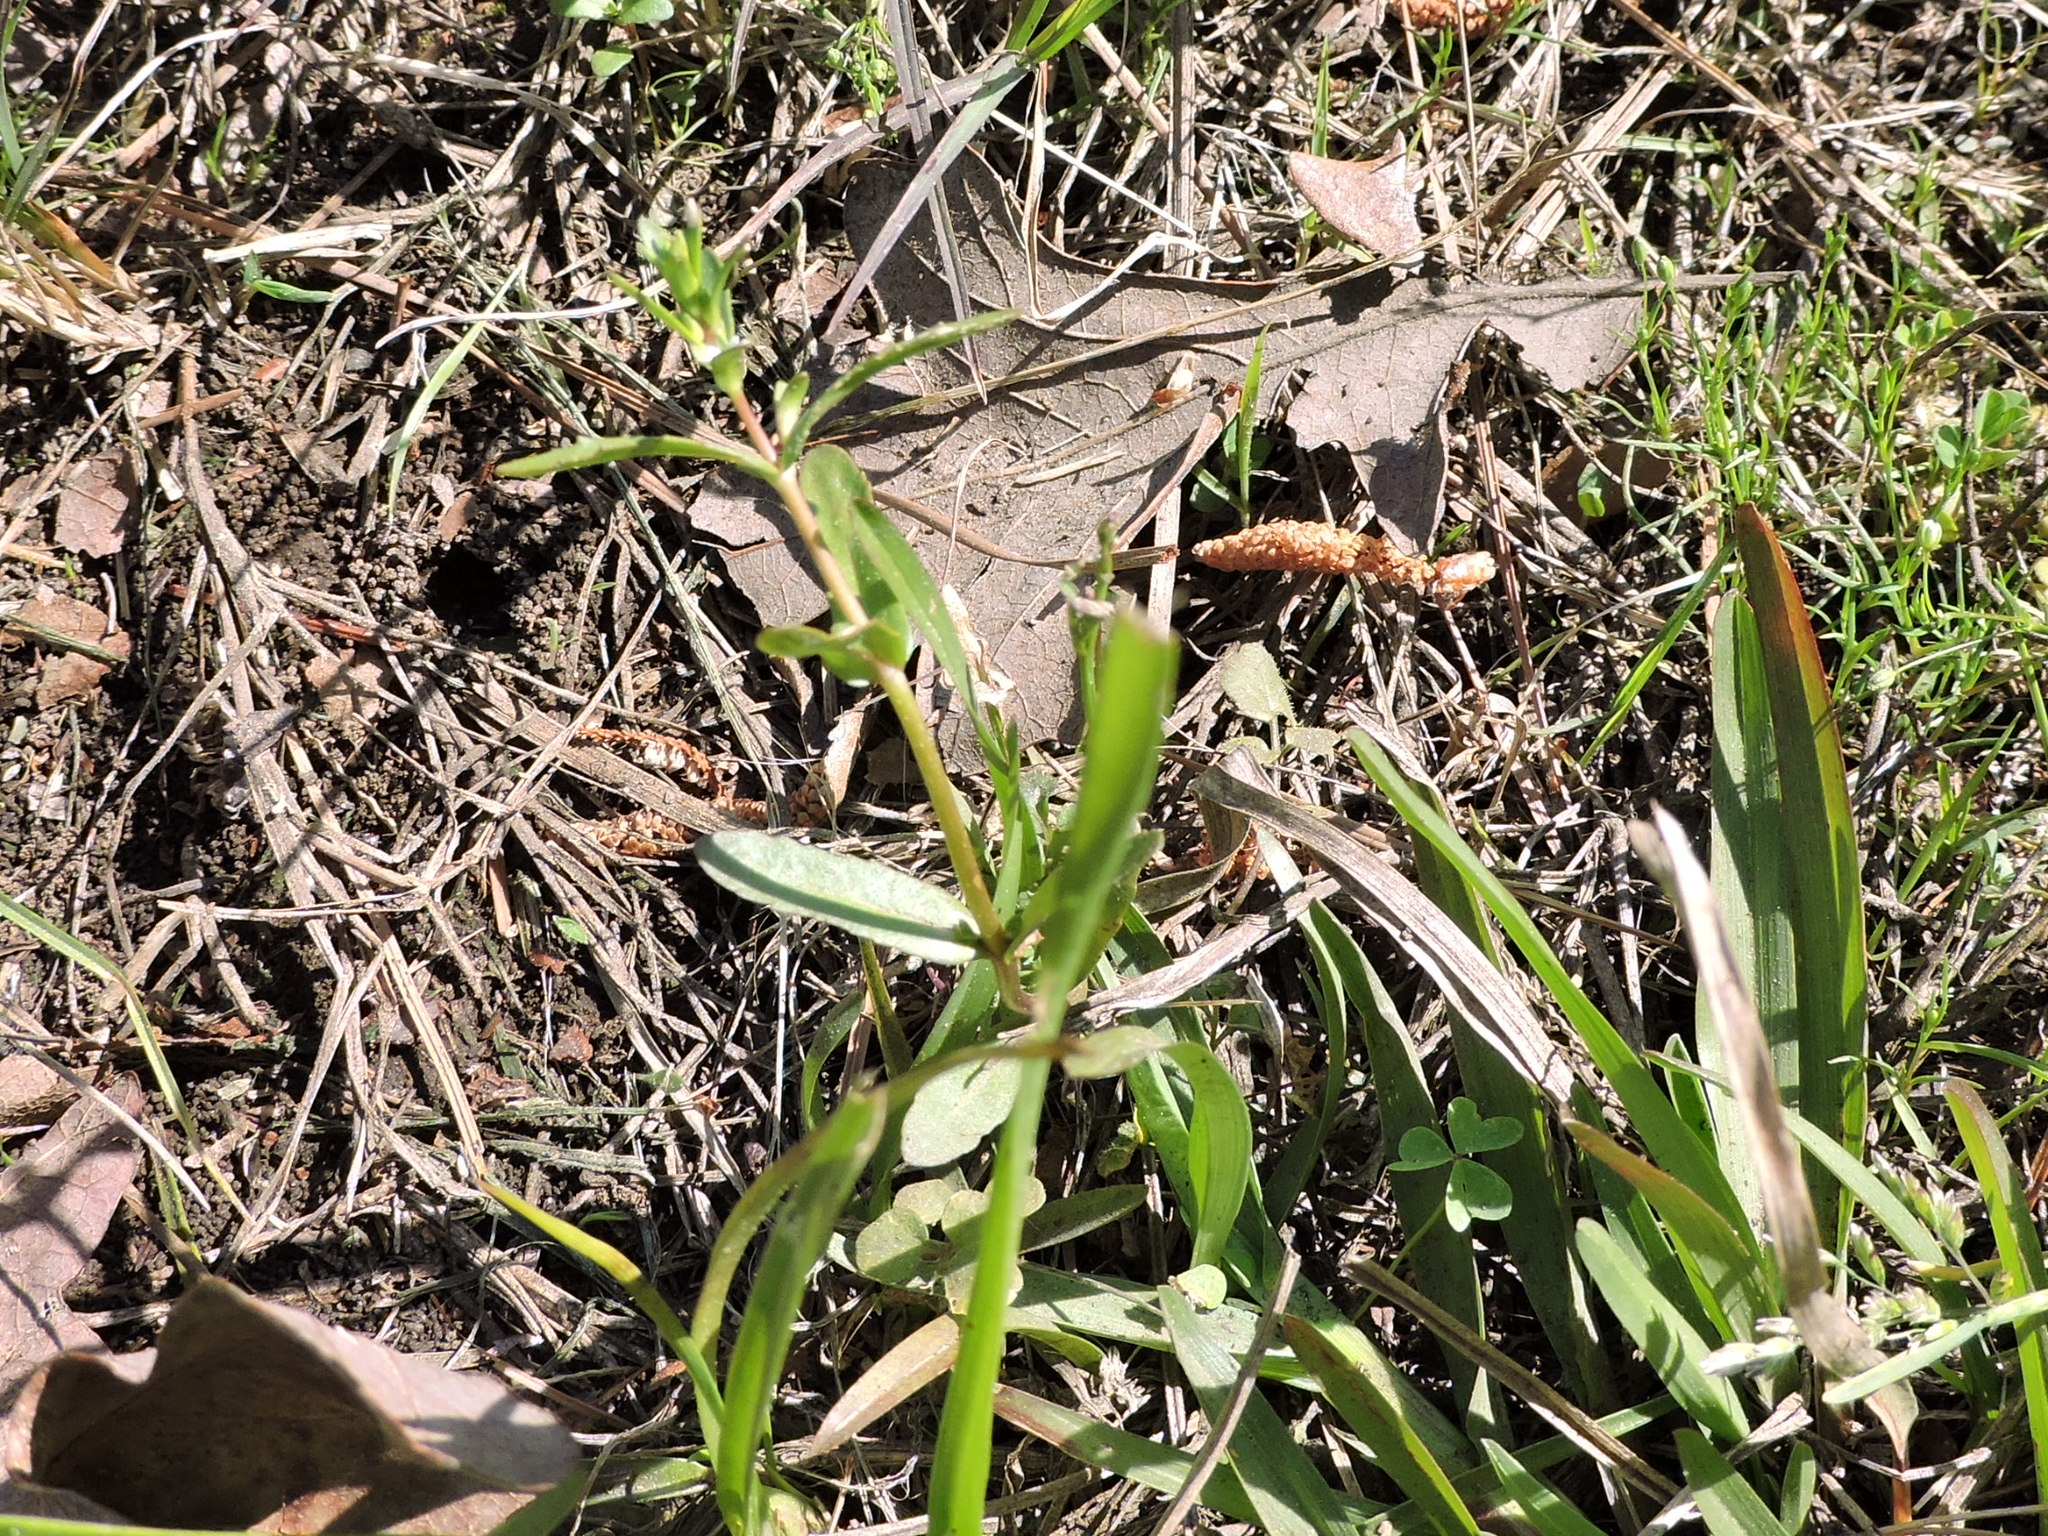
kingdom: Plantae
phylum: Tracheophyta
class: Magnoliopsida
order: Lamiales
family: Plantaginaceae
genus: Veronica
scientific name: Veronica peregrina
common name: Neckweed
